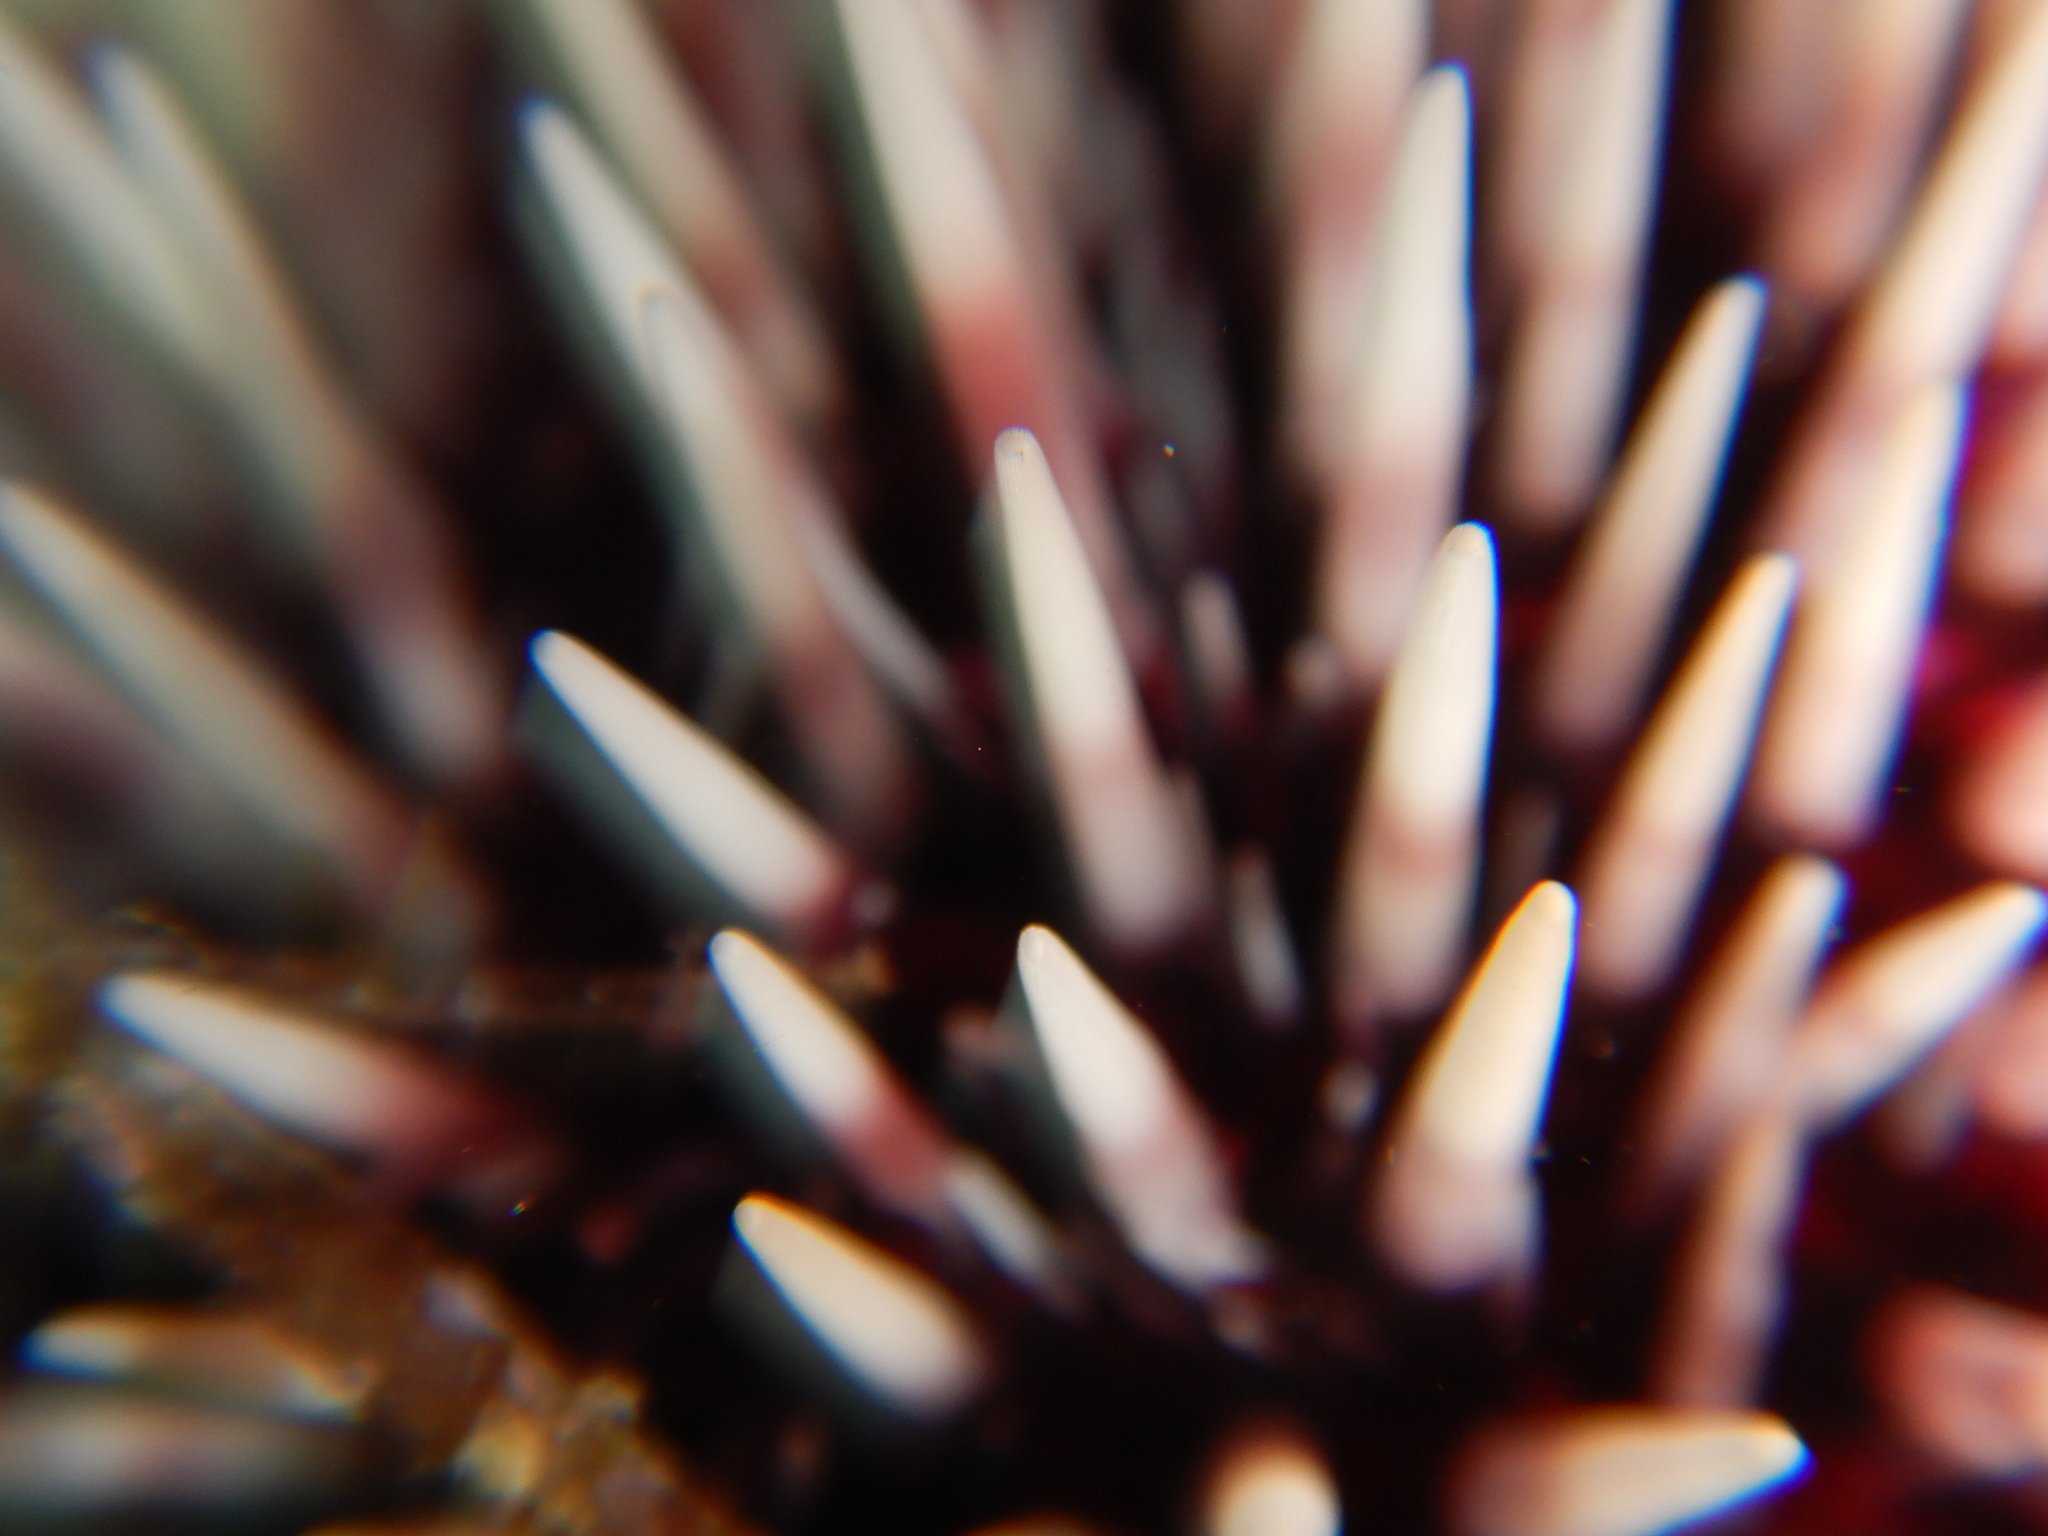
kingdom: Animalia
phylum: Echinodermata
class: Echinoidea
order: Camarodonta
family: Toxopneustidae
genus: Sphaerechinus
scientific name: Sphaerechinus granularis
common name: Violet sea urchin
